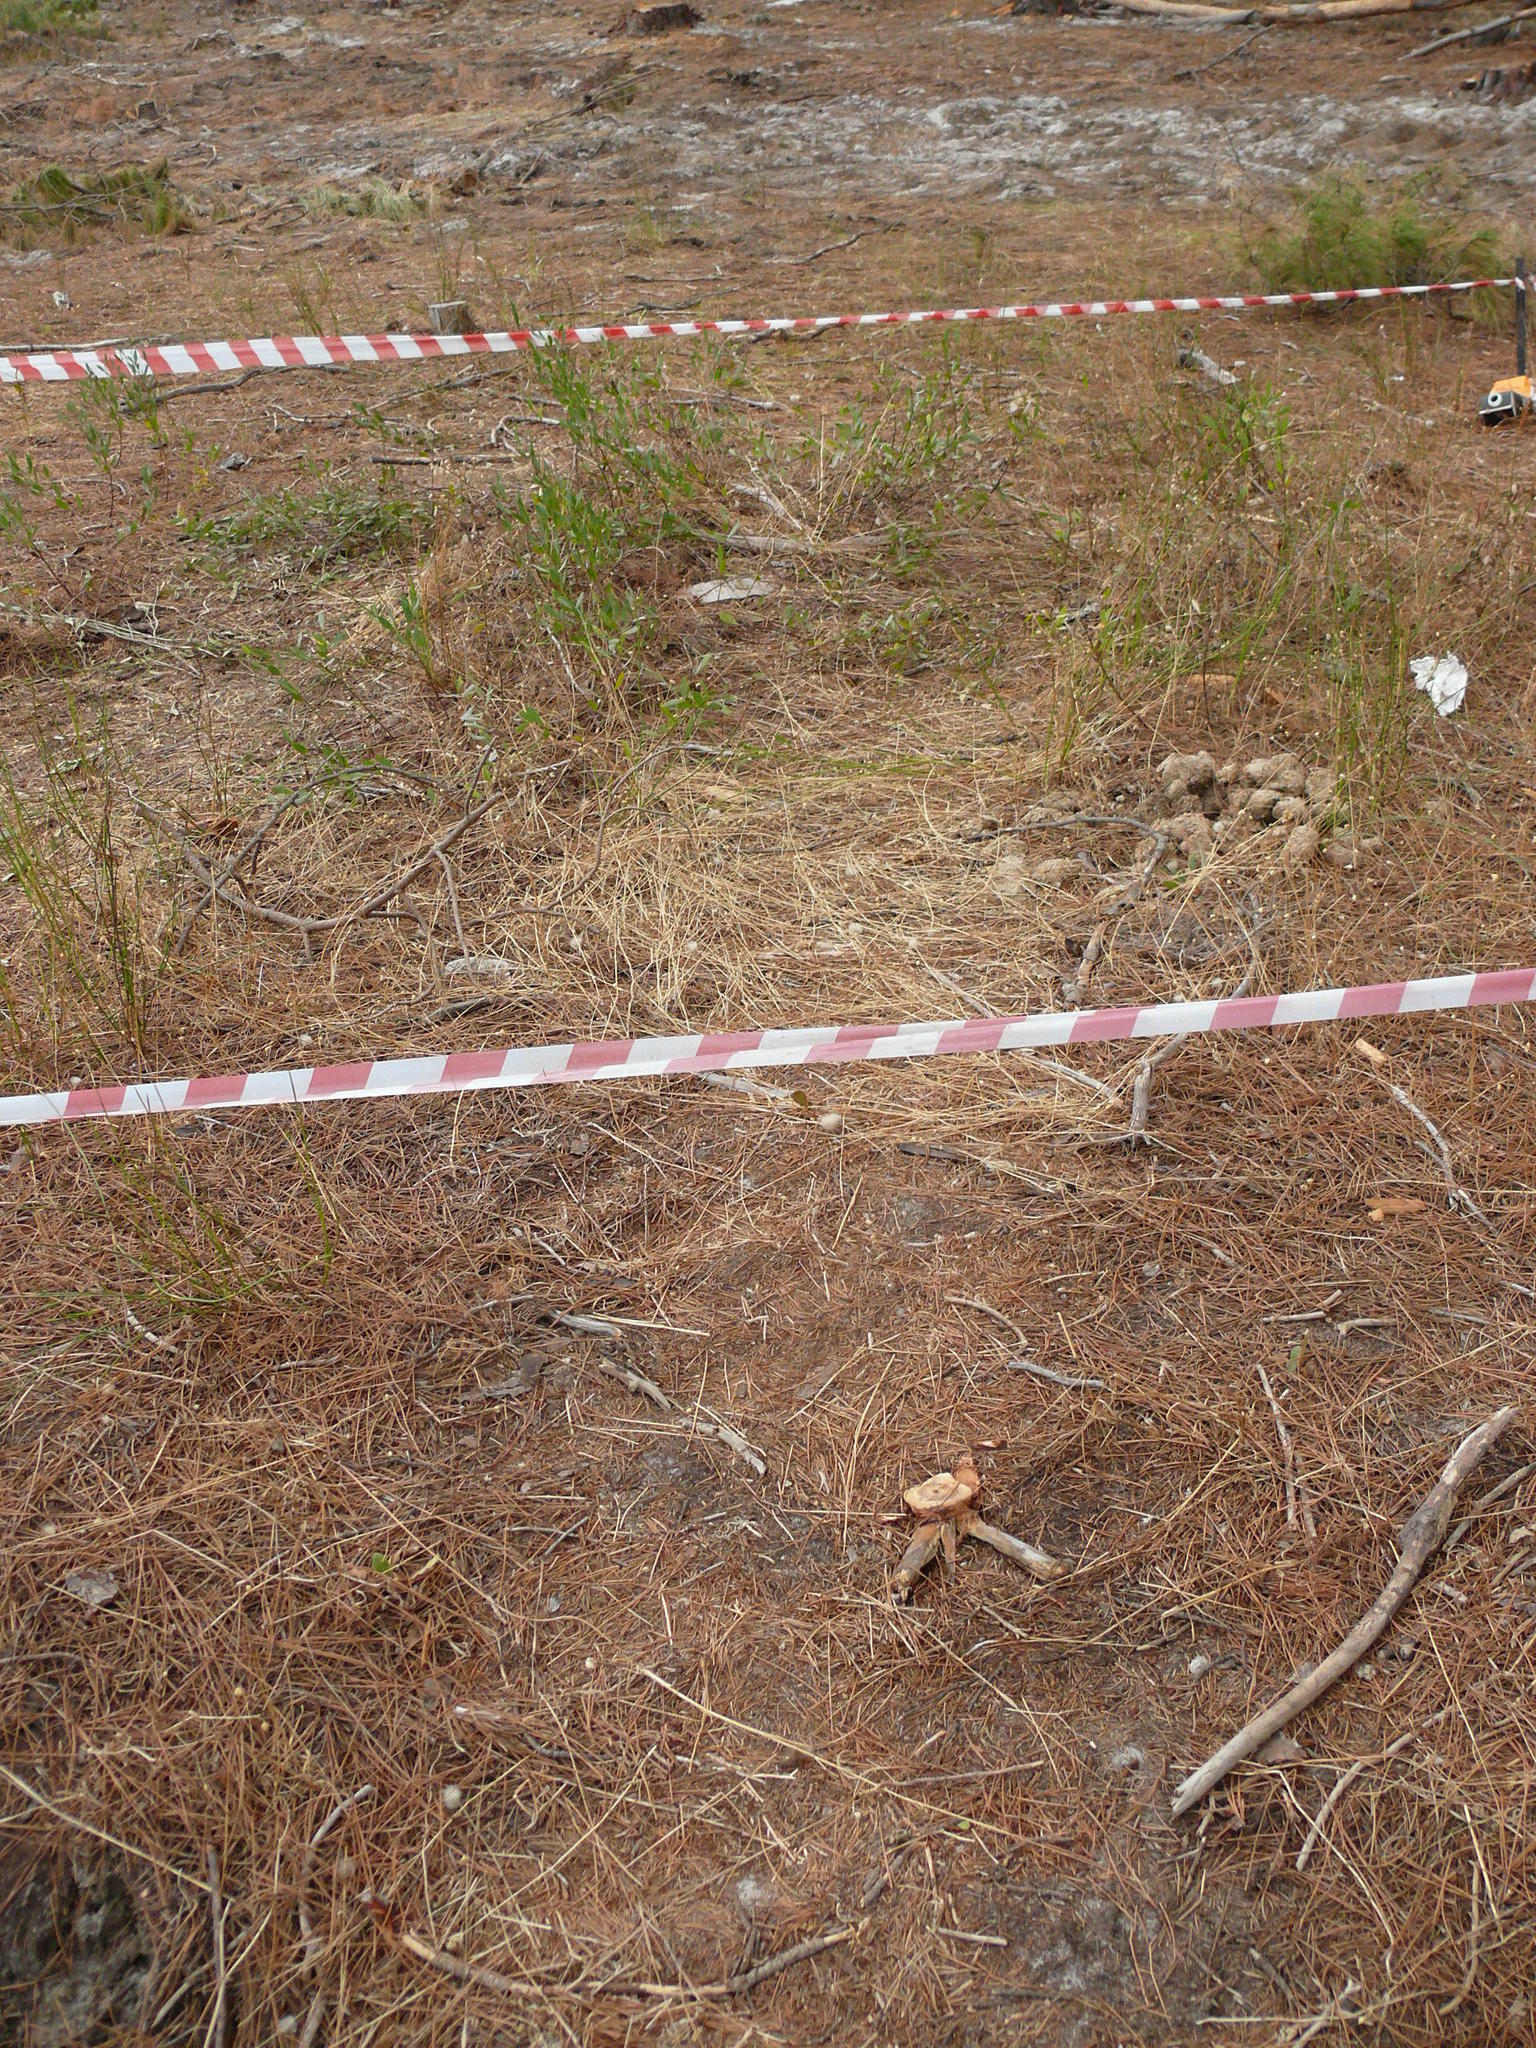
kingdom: Plantae
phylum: Tracheophyta
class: Magnoliopsida
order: Fabales
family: Fabaceae
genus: Rafnia
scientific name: Rafnia angulata
